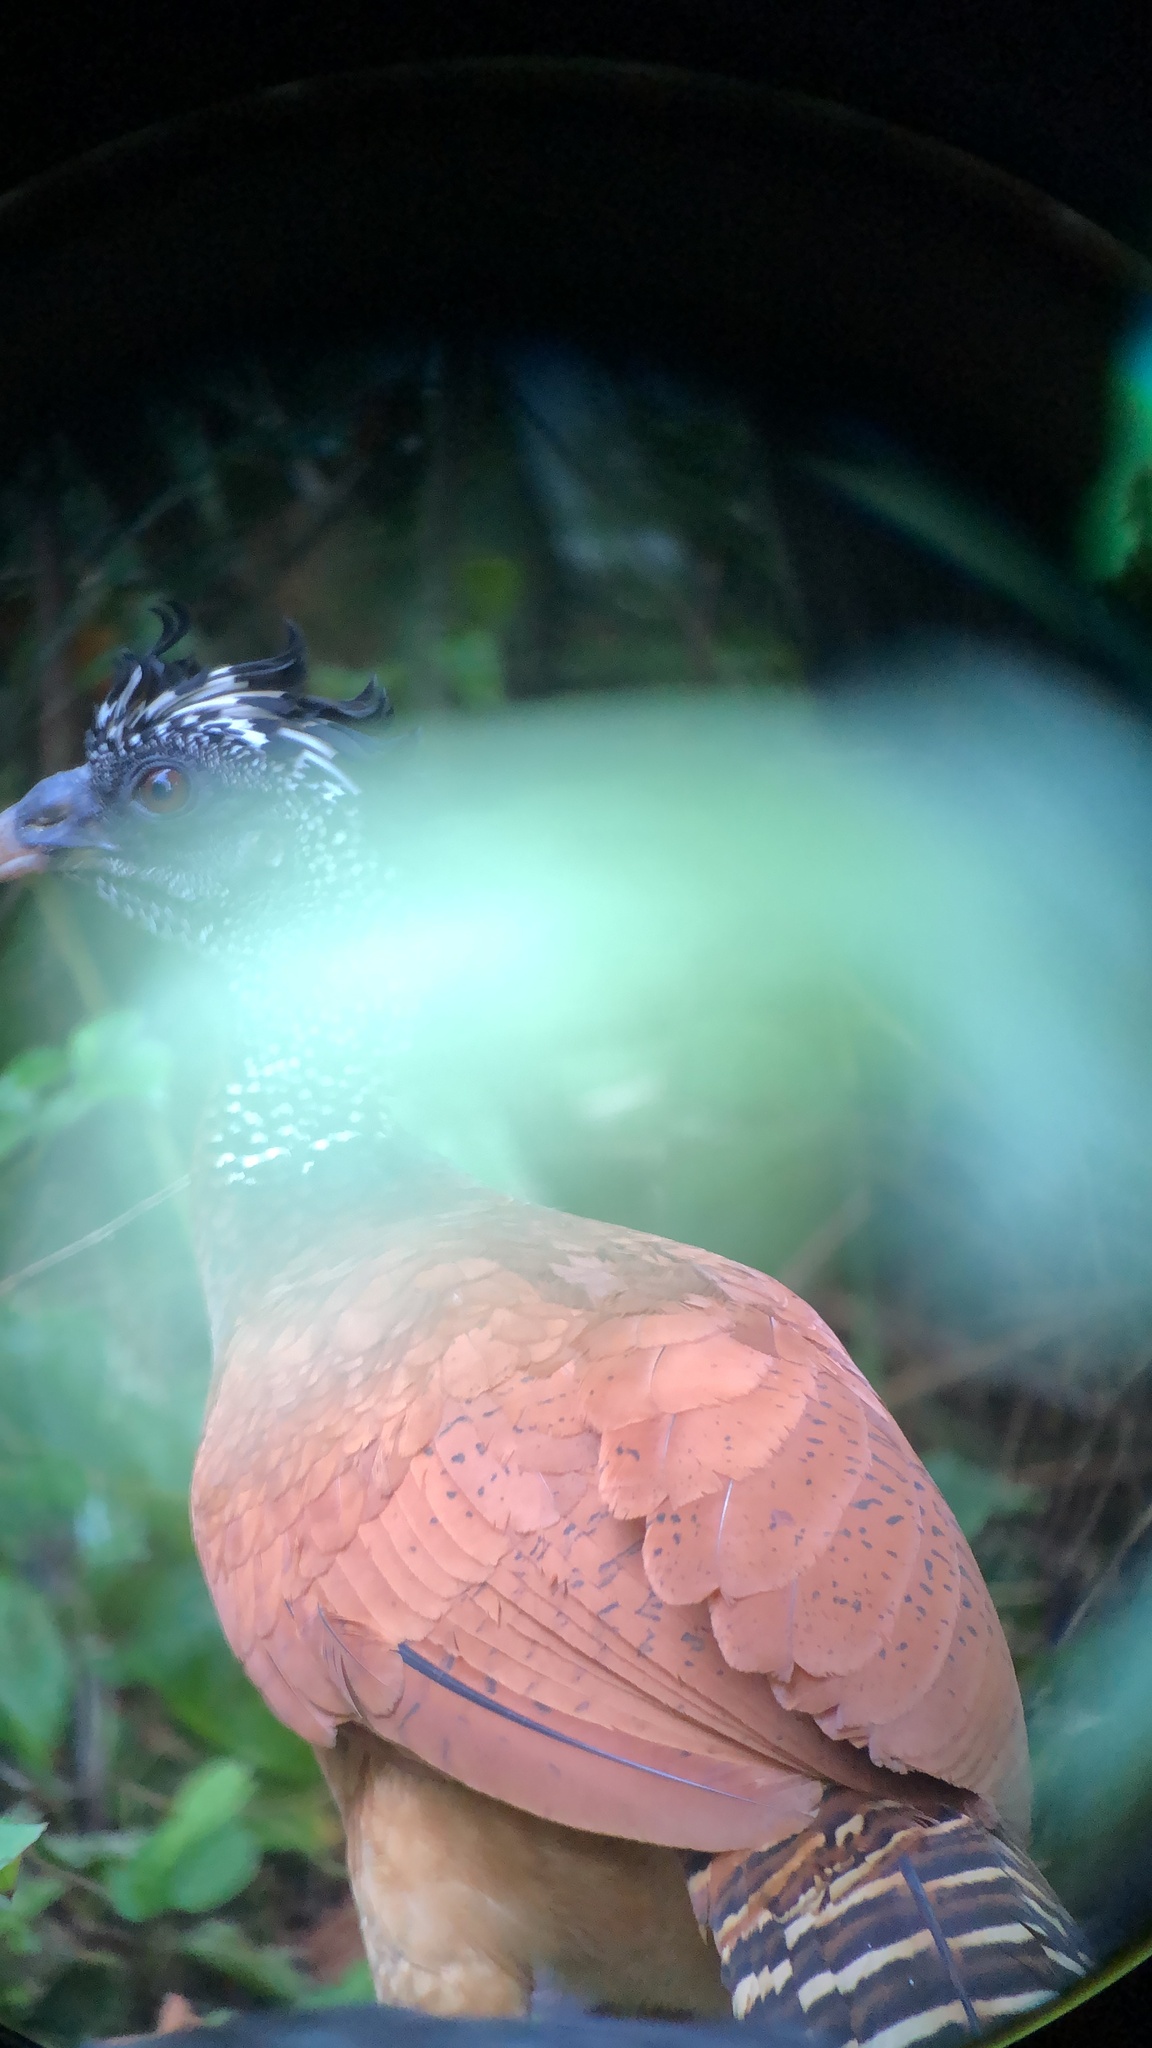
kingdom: Animalia
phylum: Chordata
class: Aves
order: Galliformes
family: Cracidae
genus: Crax
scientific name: Crax rubra
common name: Great curassow
